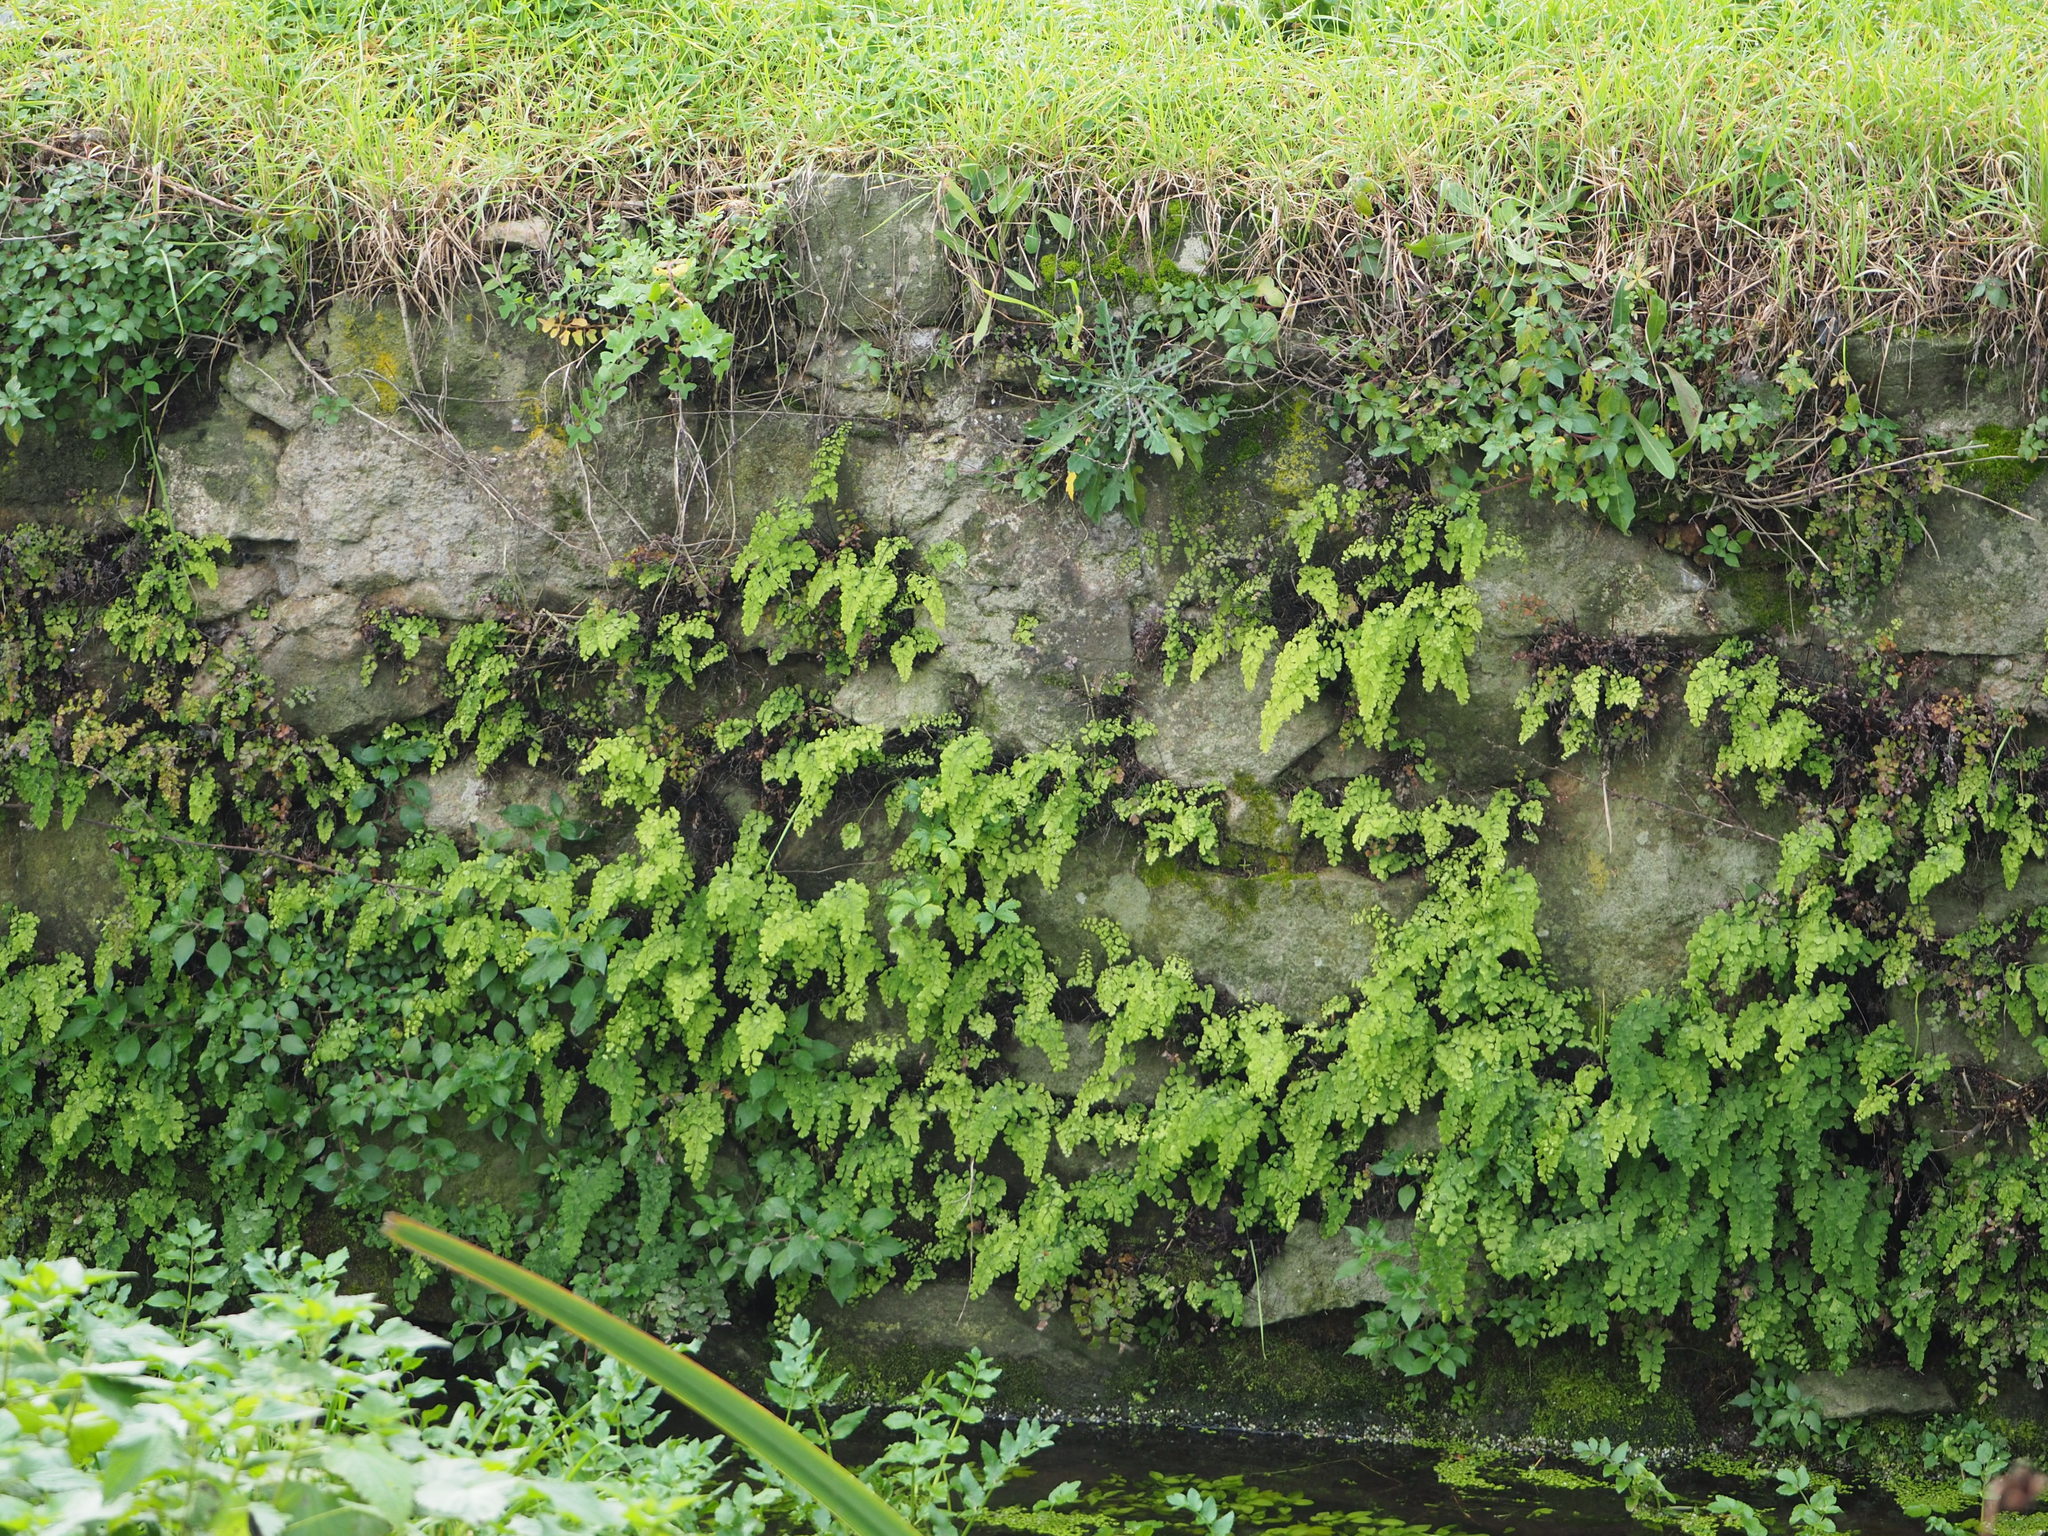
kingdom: Plantae
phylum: Tracheophyta
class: Polypodiopsida
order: Polypodiales
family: Pteridaceae
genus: Adiantum
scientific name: Adiantum capillus-veneris
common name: Maidenhair fern
